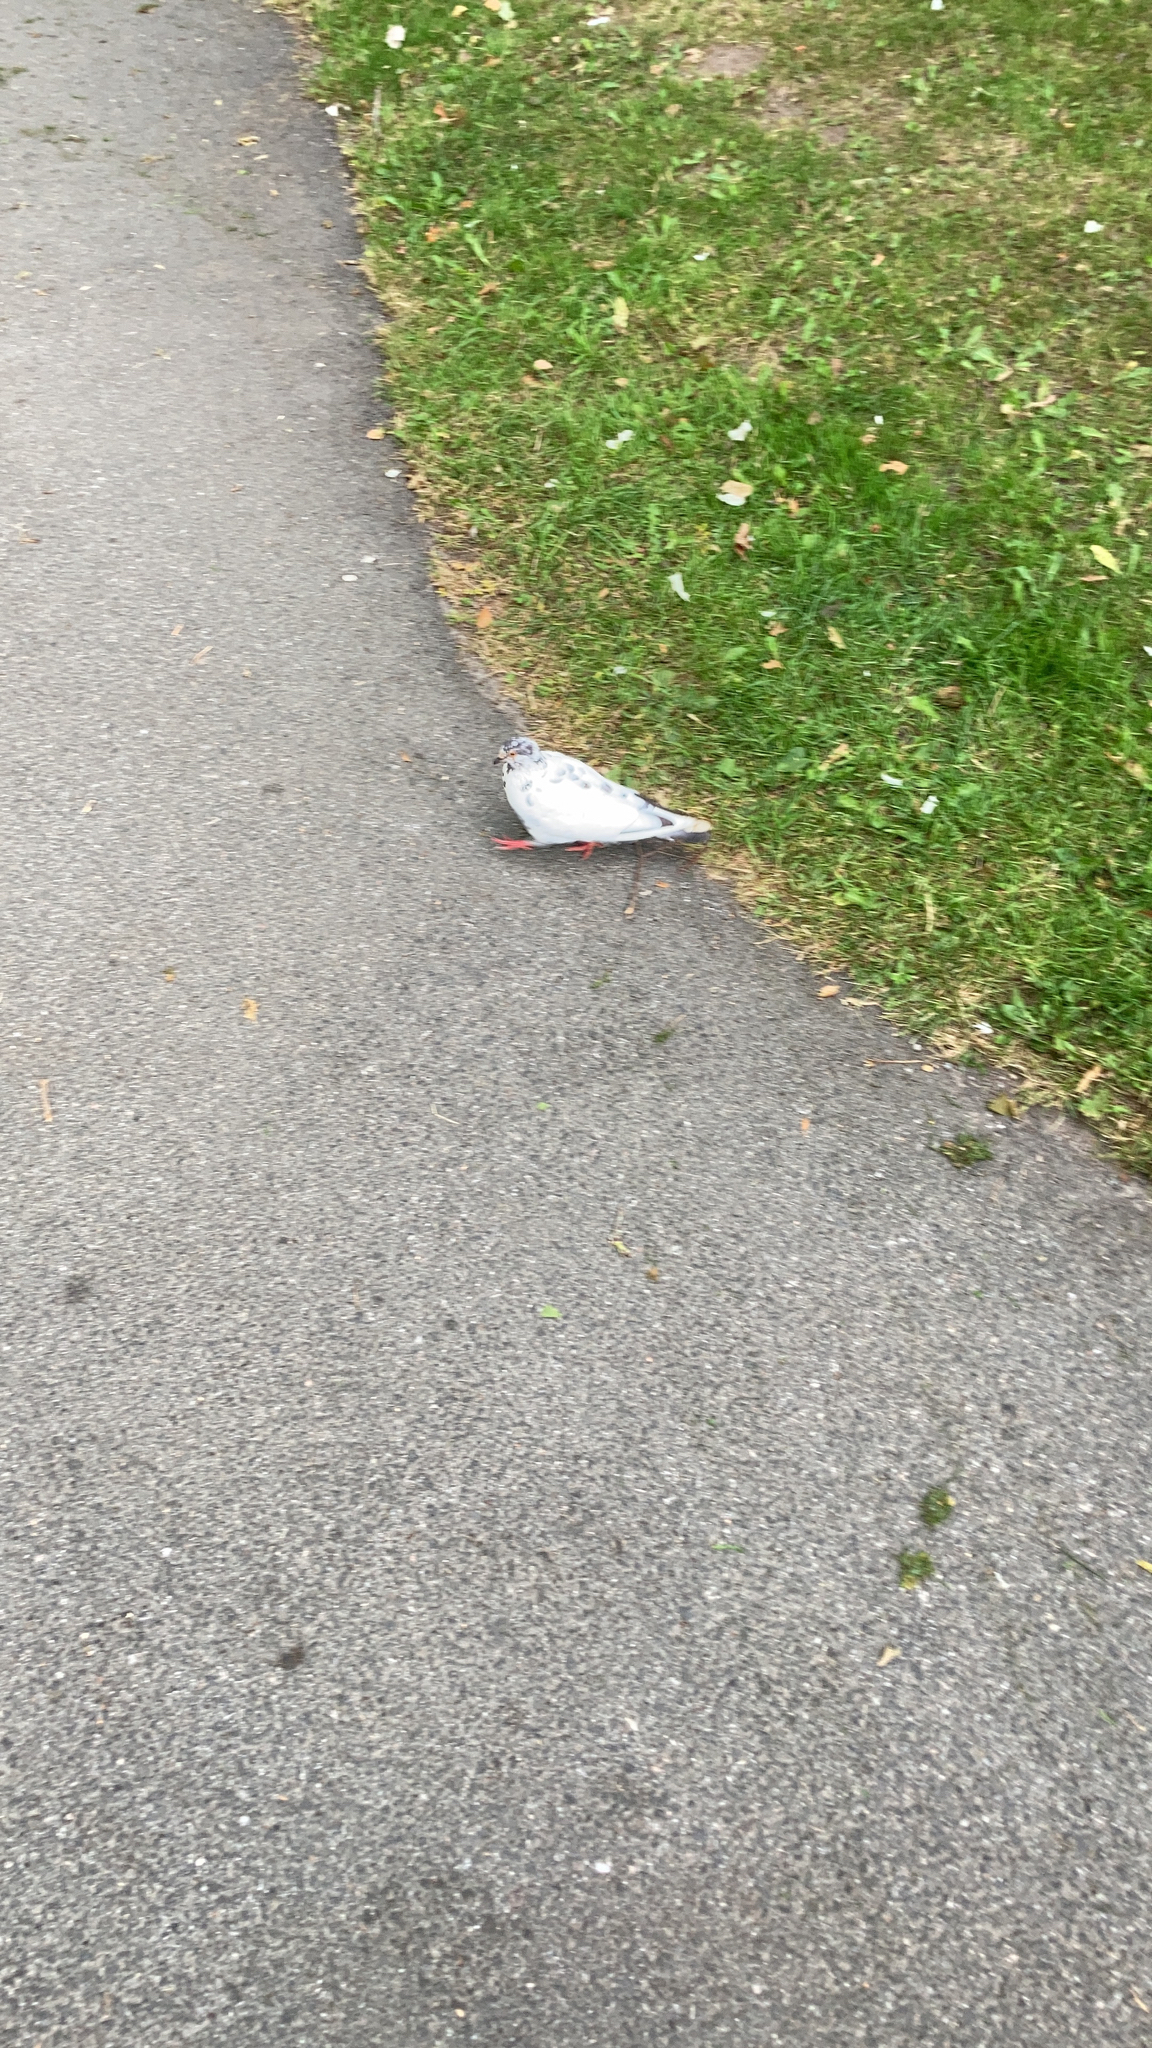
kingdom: Animalia
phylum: Chordata
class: Aves
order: Columbiformes
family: Columbidae
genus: Columba
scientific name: Columba livia
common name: Rock pigeon
